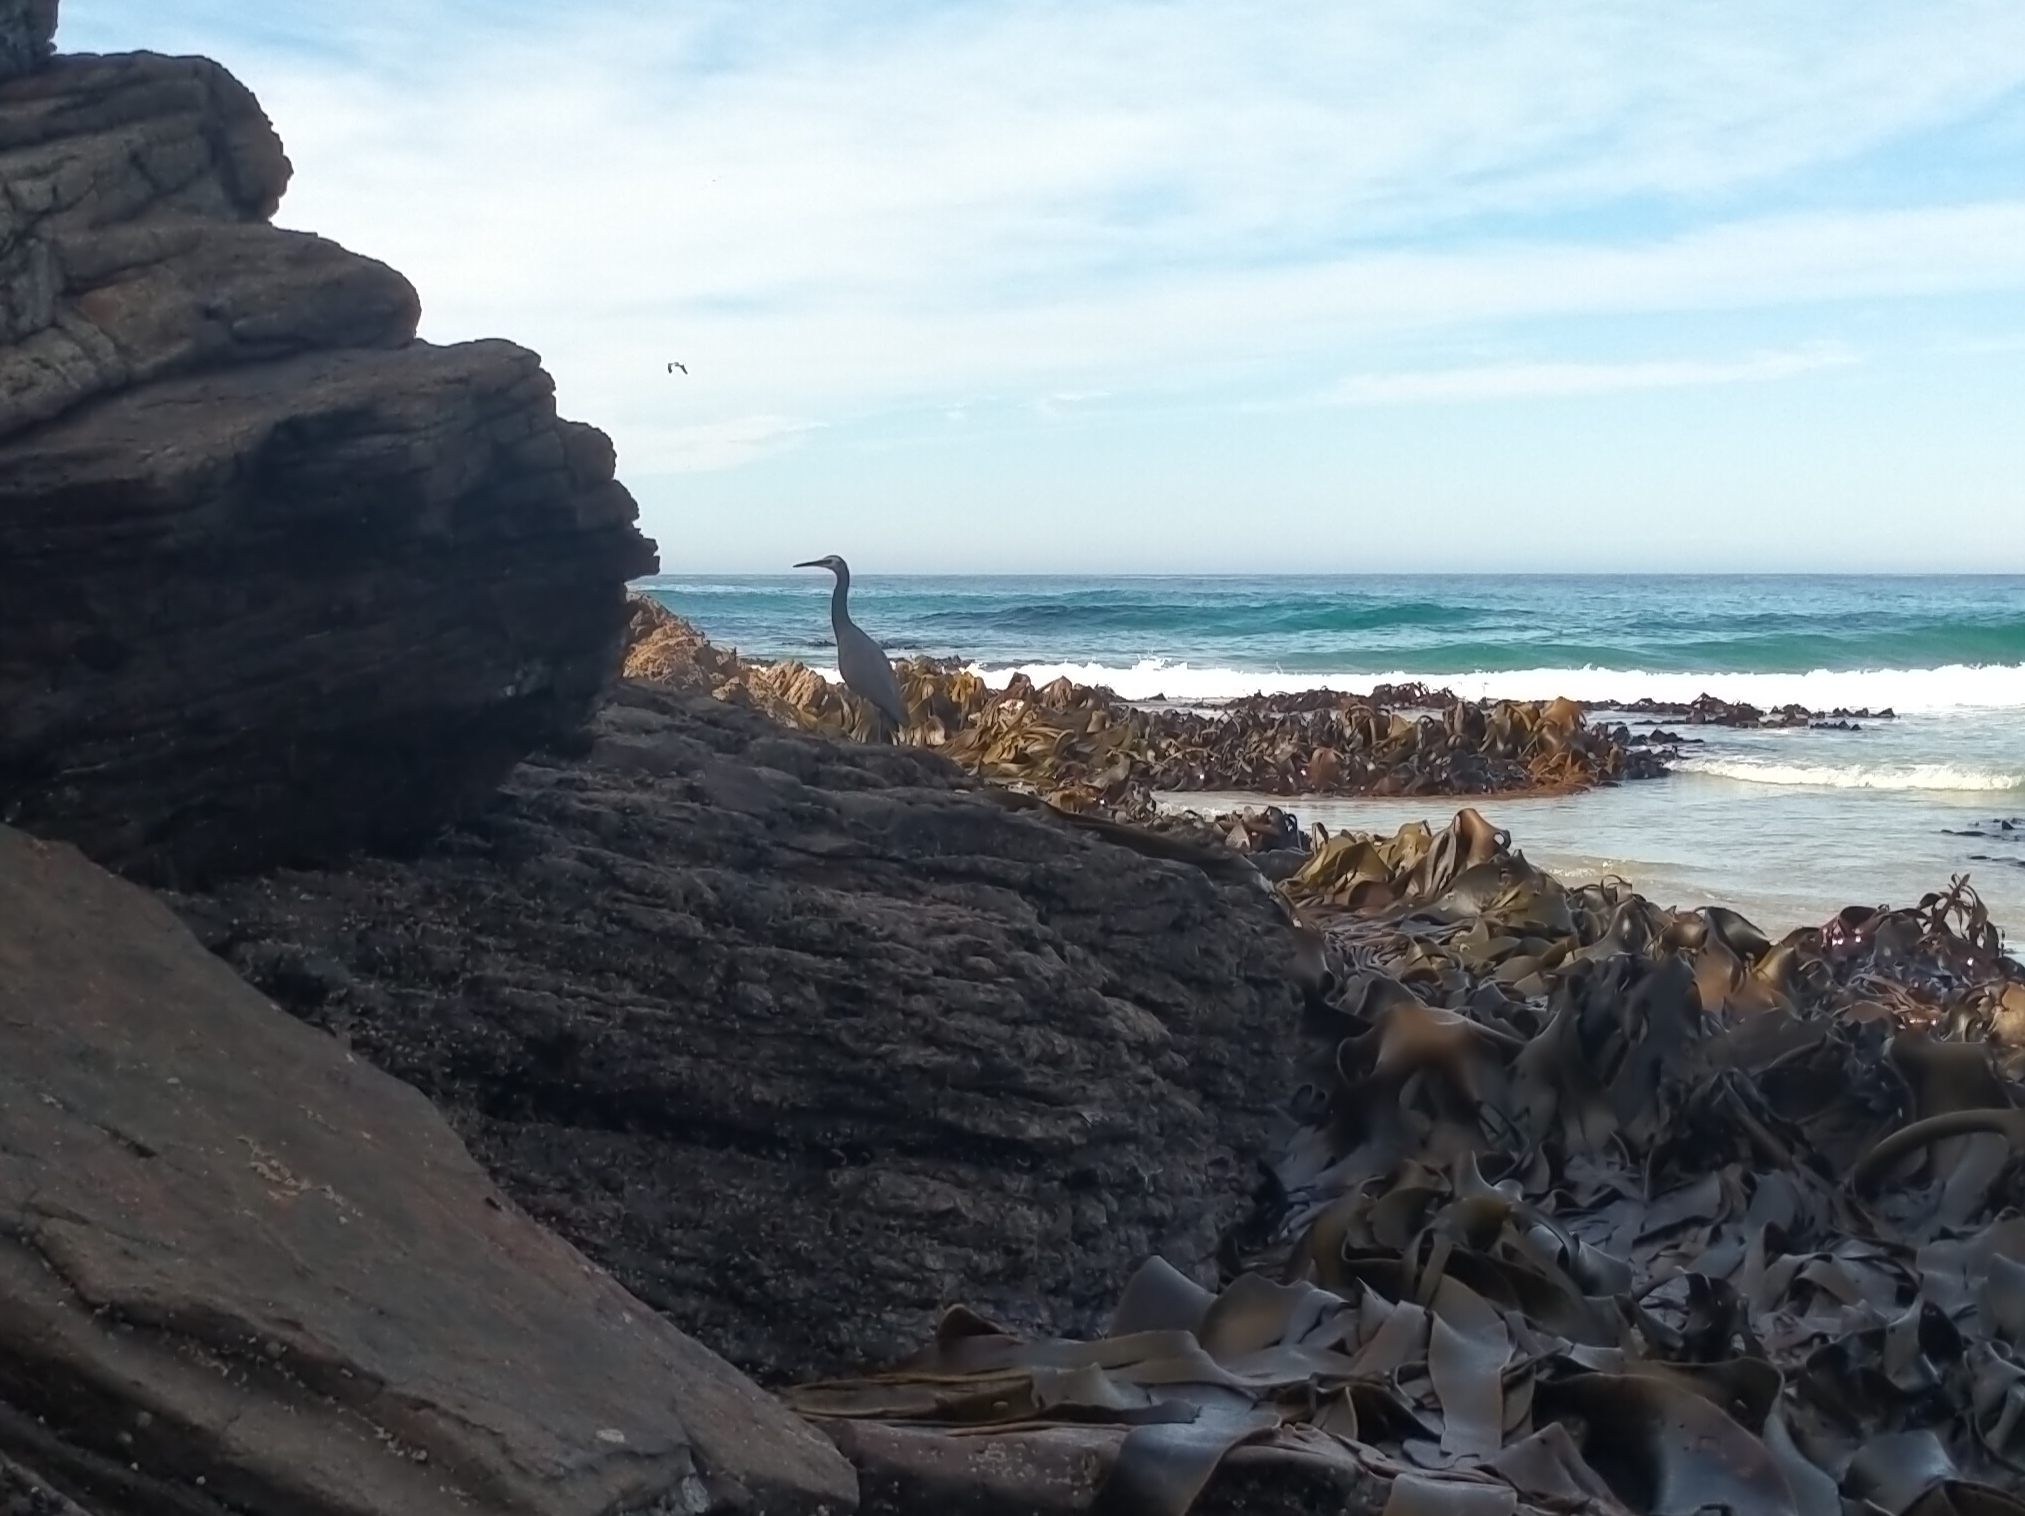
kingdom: Animalia
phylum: Chordata
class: Aves
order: Pelecaniformes
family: Ardeidae
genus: Egretta
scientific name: Egretta novaehollandiae
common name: White-faced heron
